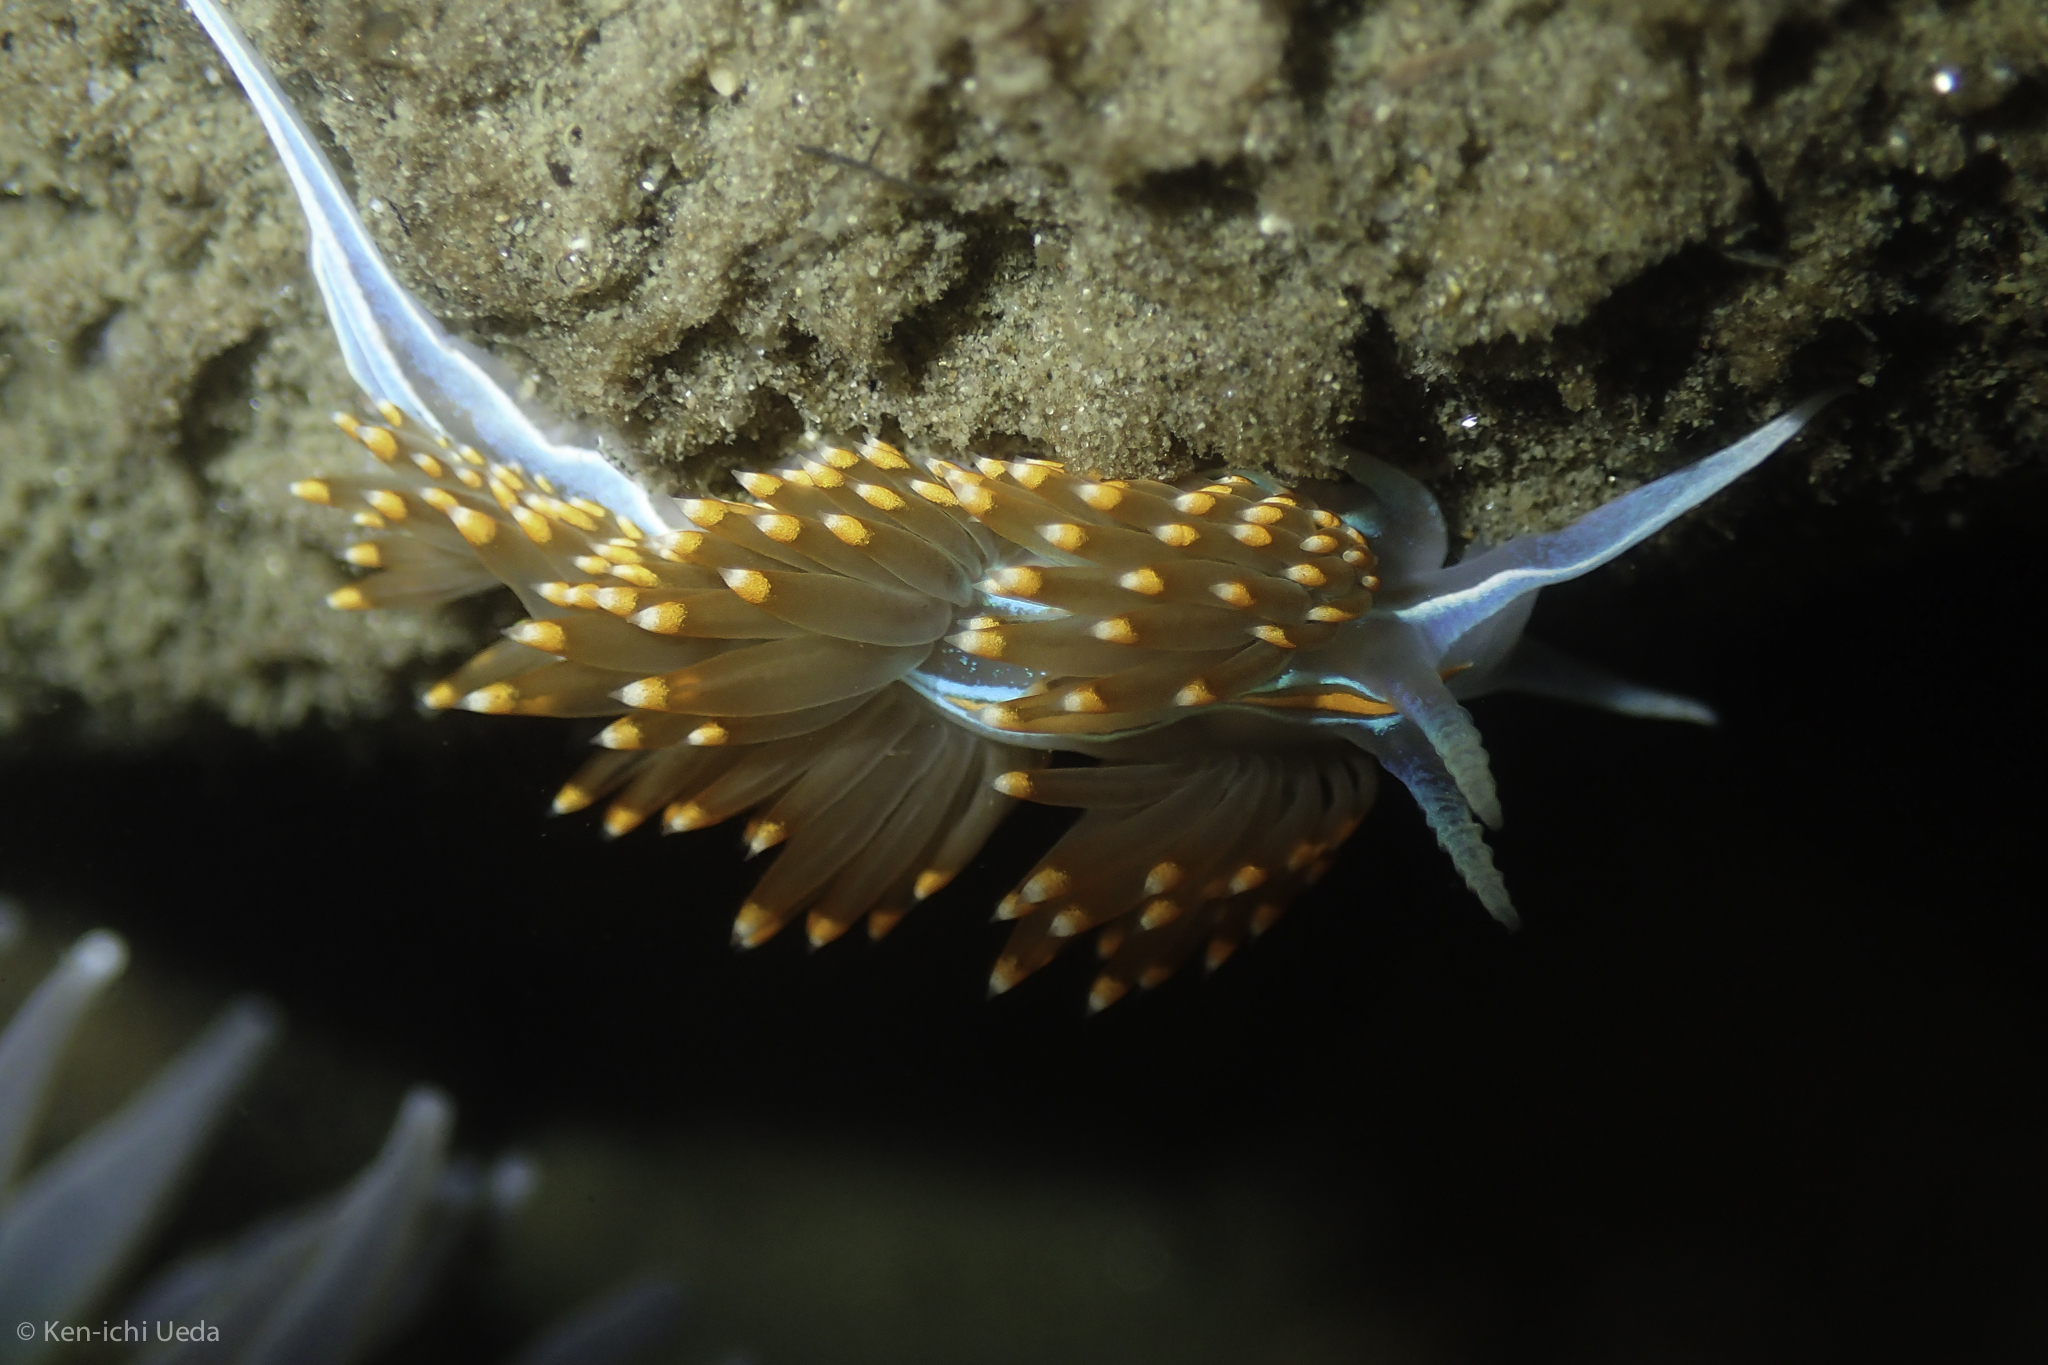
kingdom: Animalia
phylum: Mollusca
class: Gastropoda
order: Nudibranchia
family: Myrrhinidae
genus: Hermissenda
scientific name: Hermissenda opalescens
